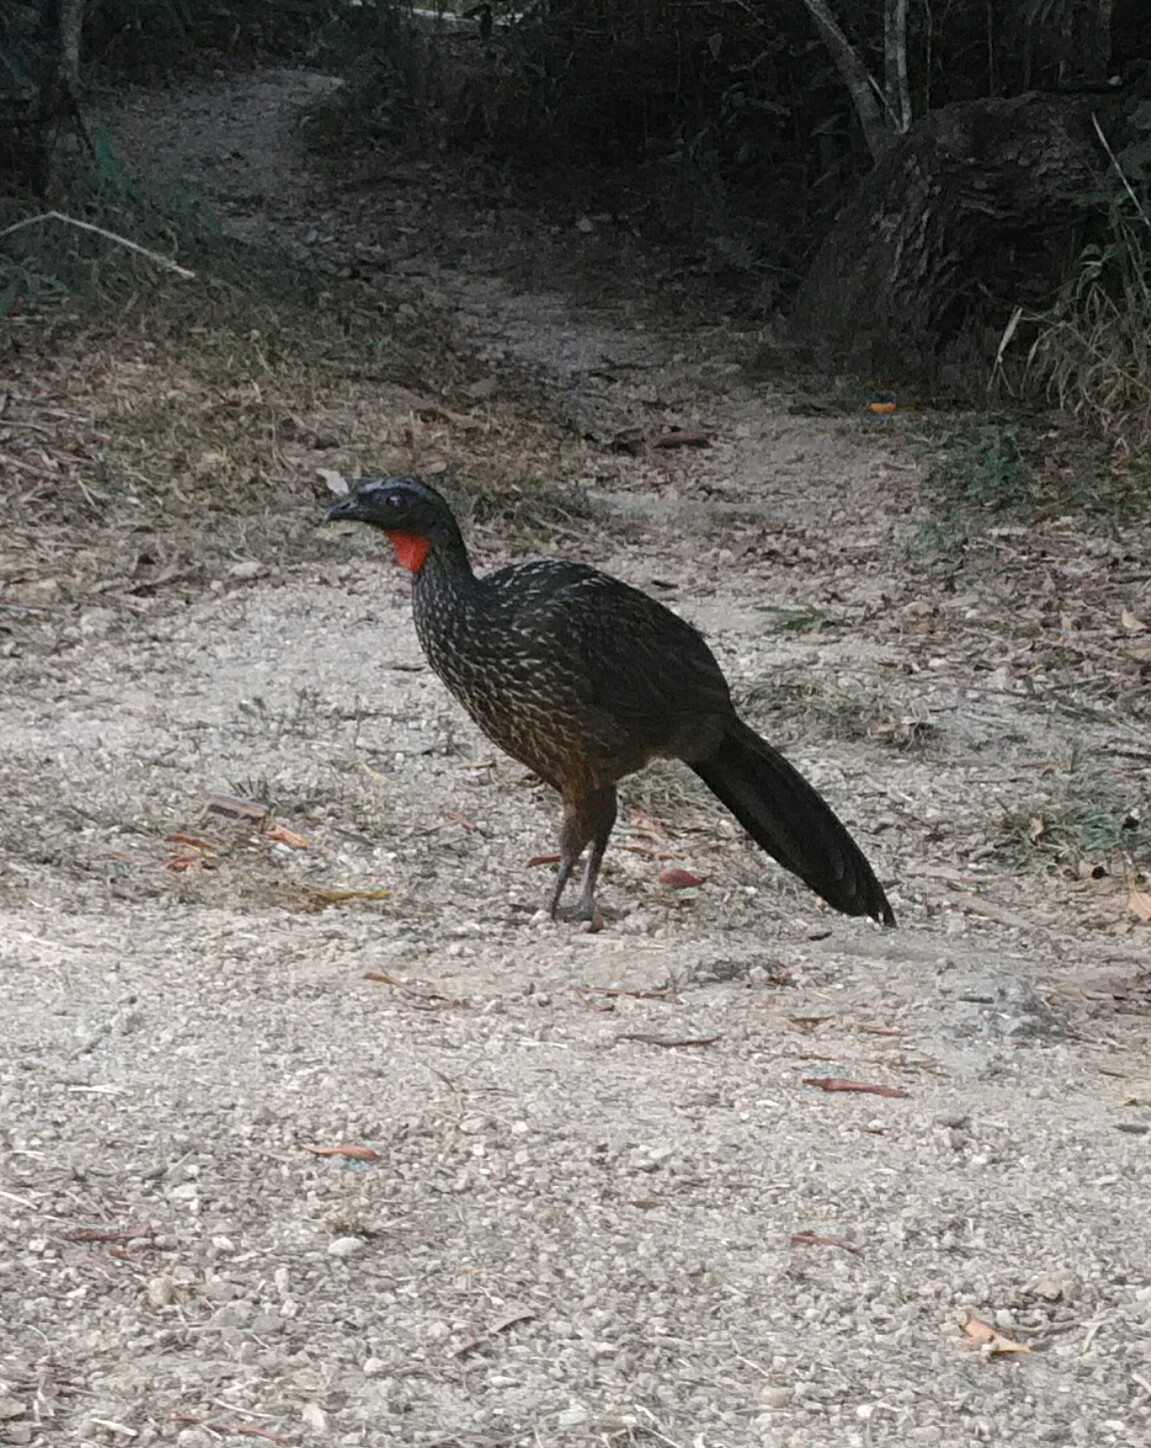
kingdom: Animalia
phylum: Chordata
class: Aves
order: Galliformes
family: Cracidae
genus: Penelope
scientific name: Penelope obscura
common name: Dusky-legged guan
